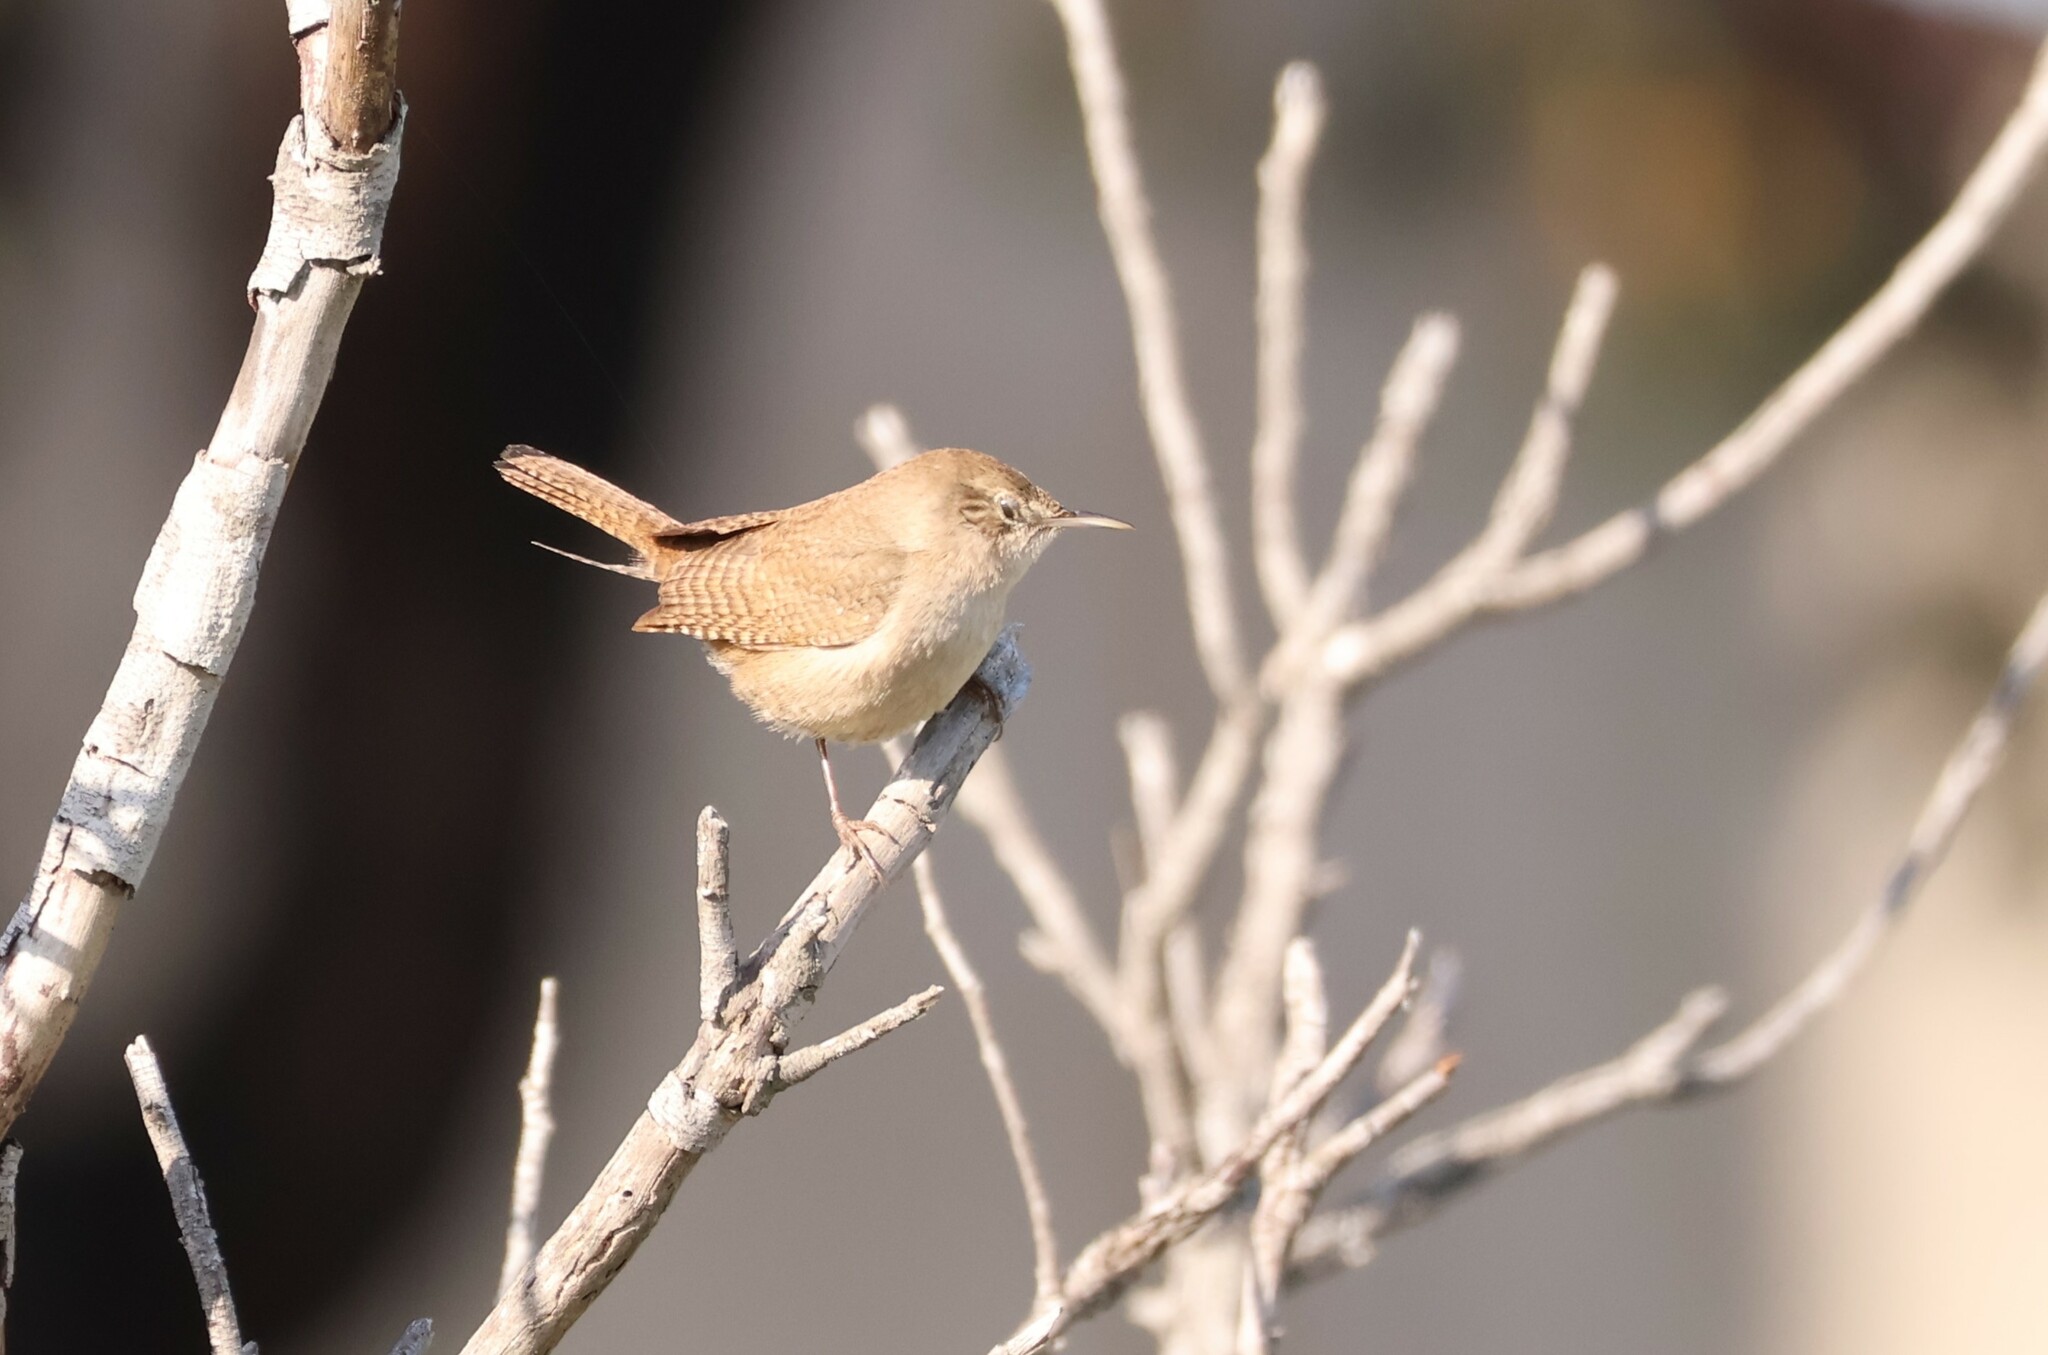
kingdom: Animalia
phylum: Chordata
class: Aves
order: Passeriformes
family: Troglodytidae
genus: Troglodytes
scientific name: Troglodytes aedon
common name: House wren
